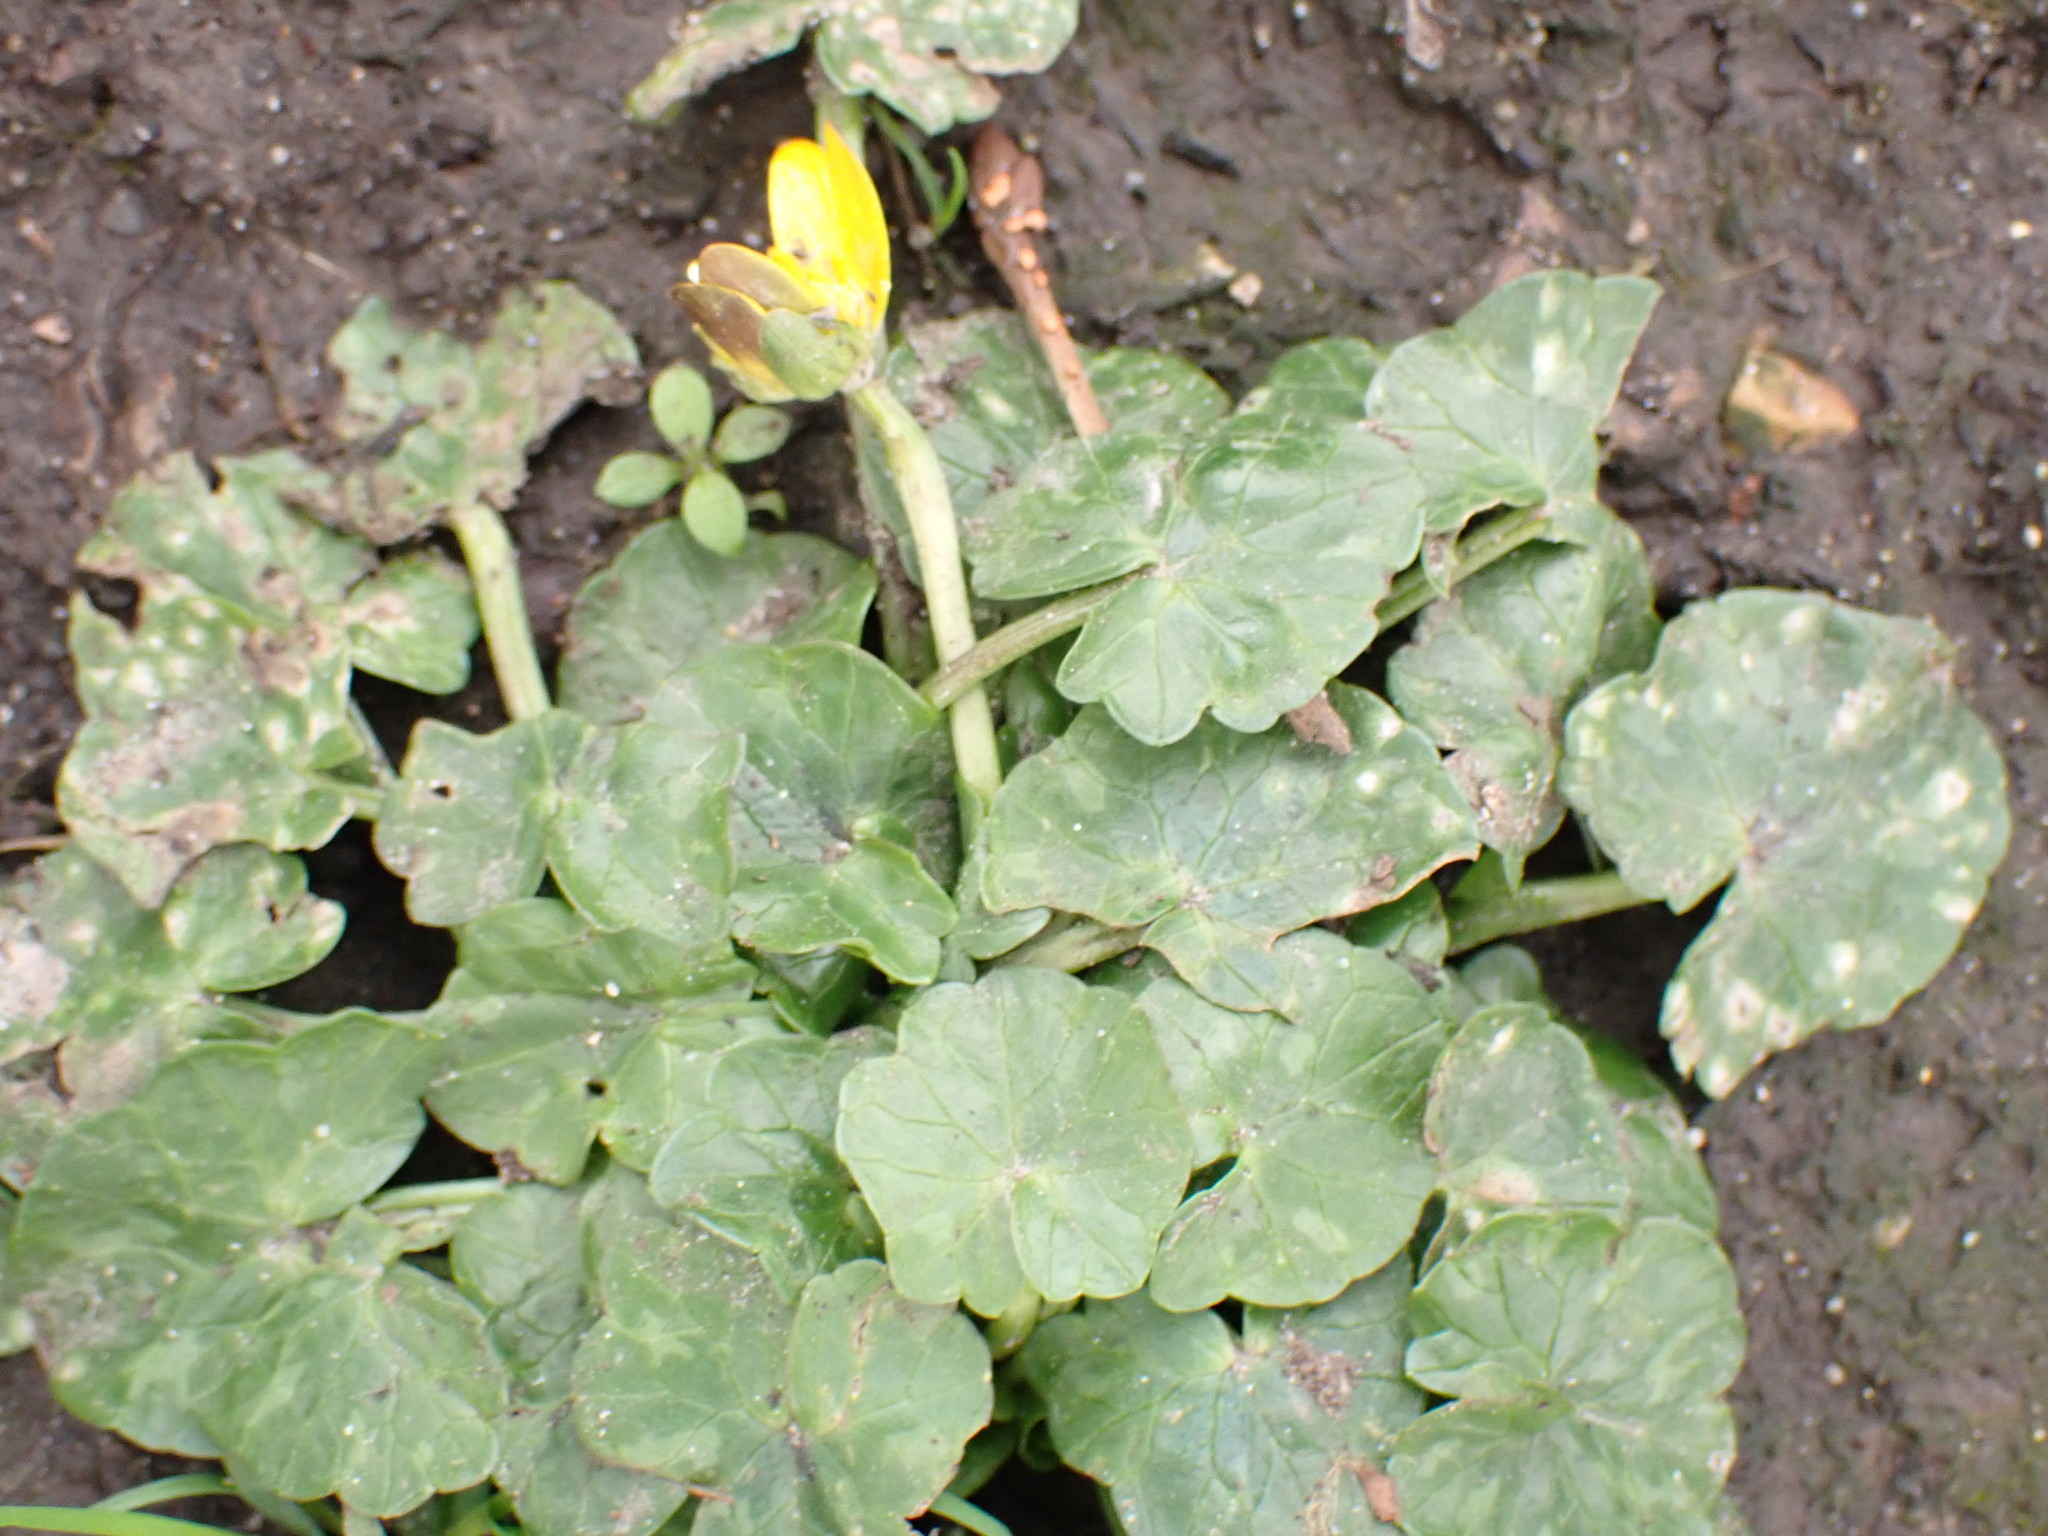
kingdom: Plantae
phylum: Tracheophyta
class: Magnoliopsida
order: Ranunculales
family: Ranunculaceae
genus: Ficaria
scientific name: Ficaria verna
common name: Lesser celandine
